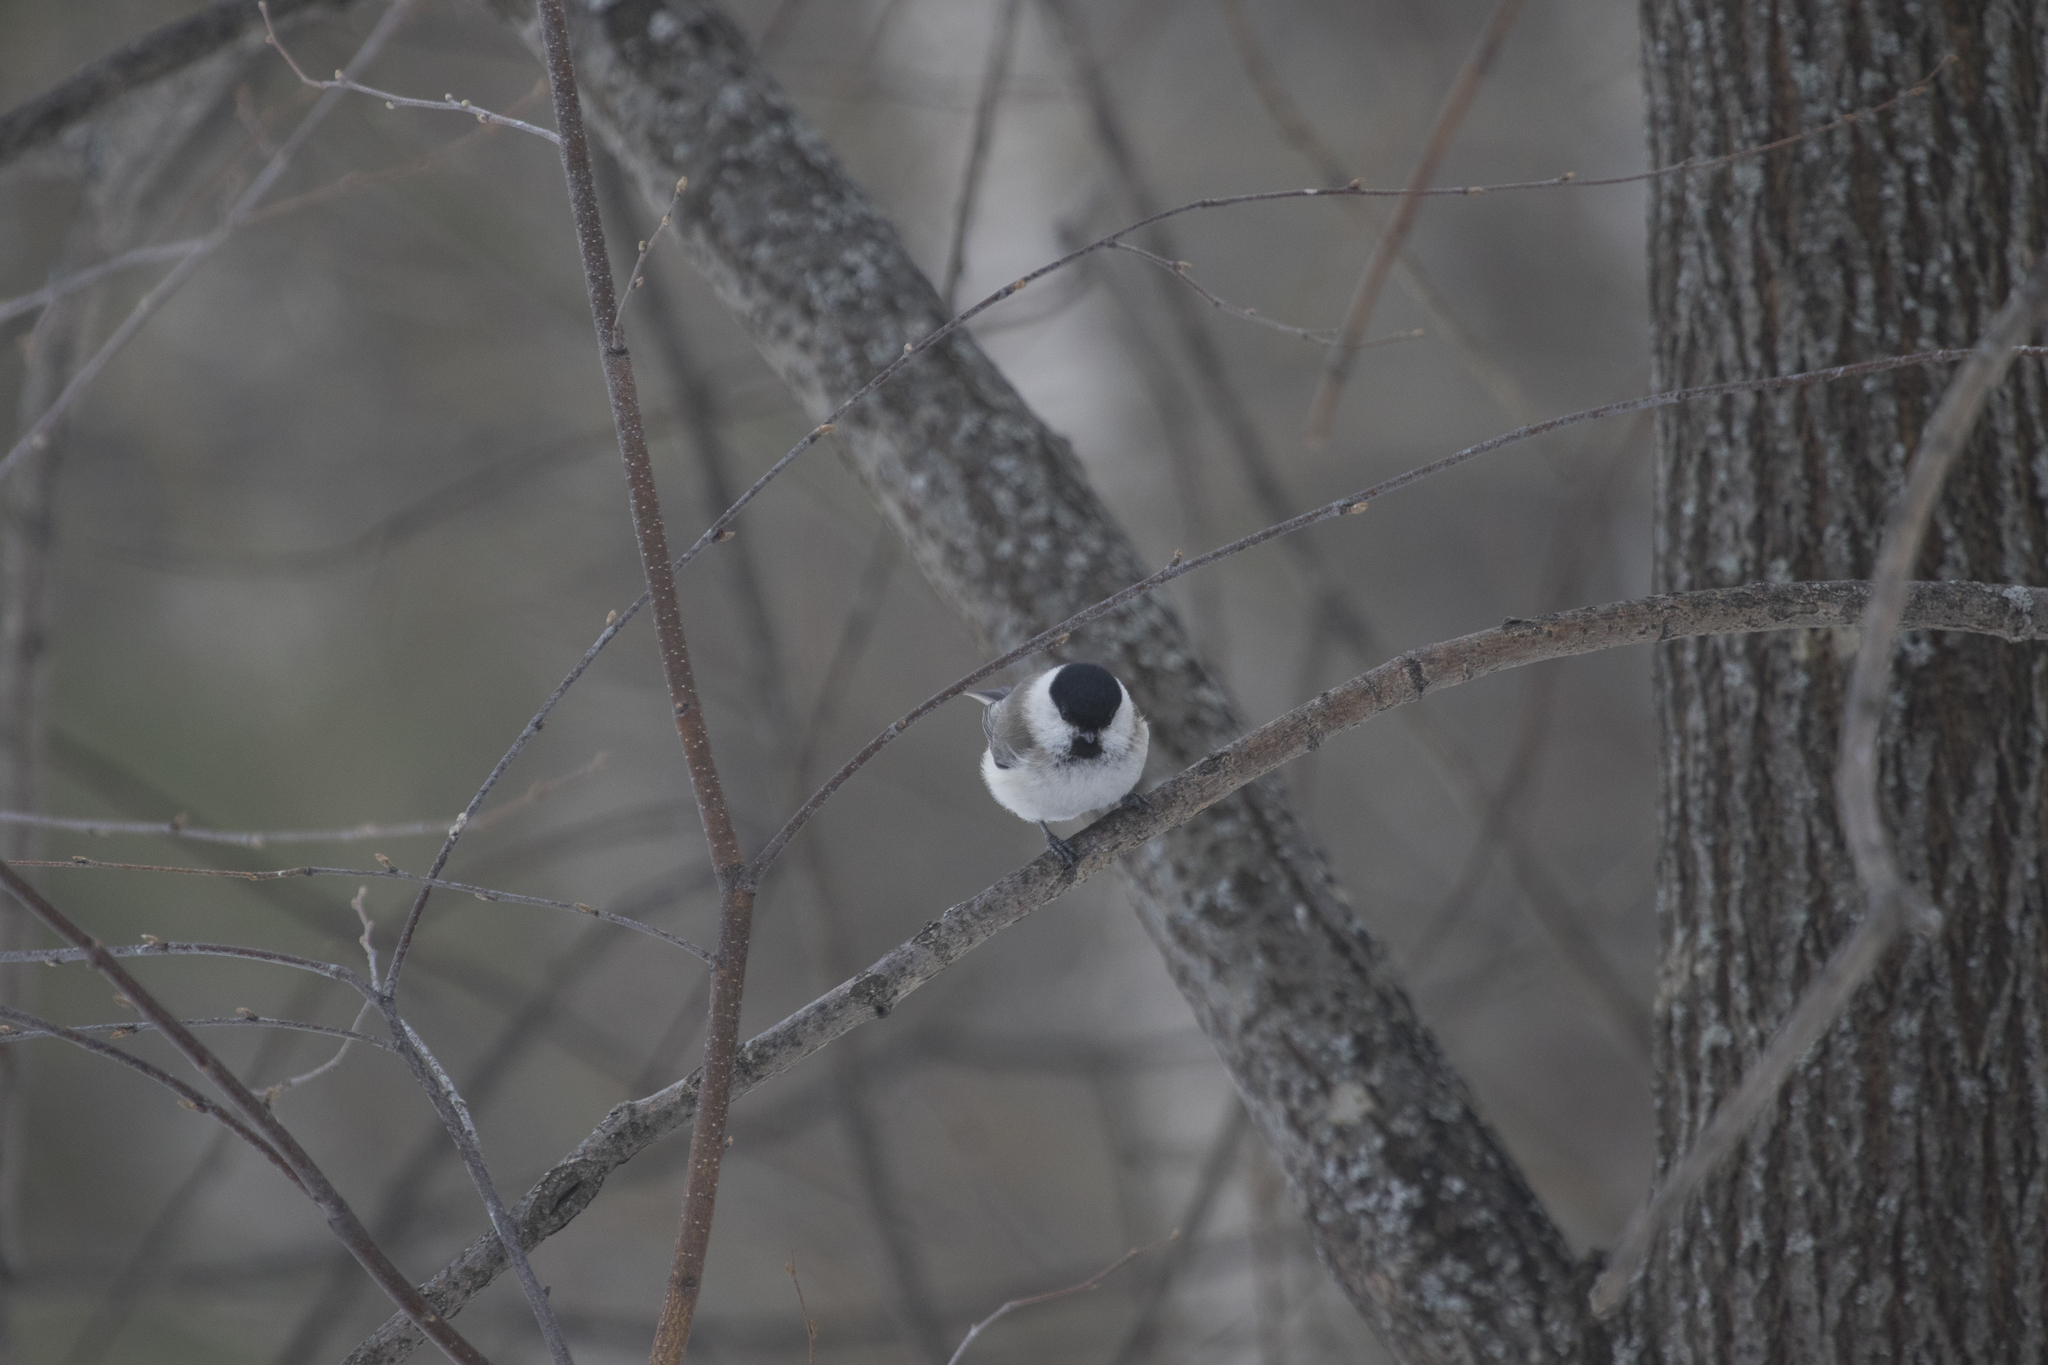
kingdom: Animalia
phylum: Chordata
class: Aves
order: Passeriformes
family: Paridae
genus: Poecile
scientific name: Poecile montanus
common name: Willow tit
